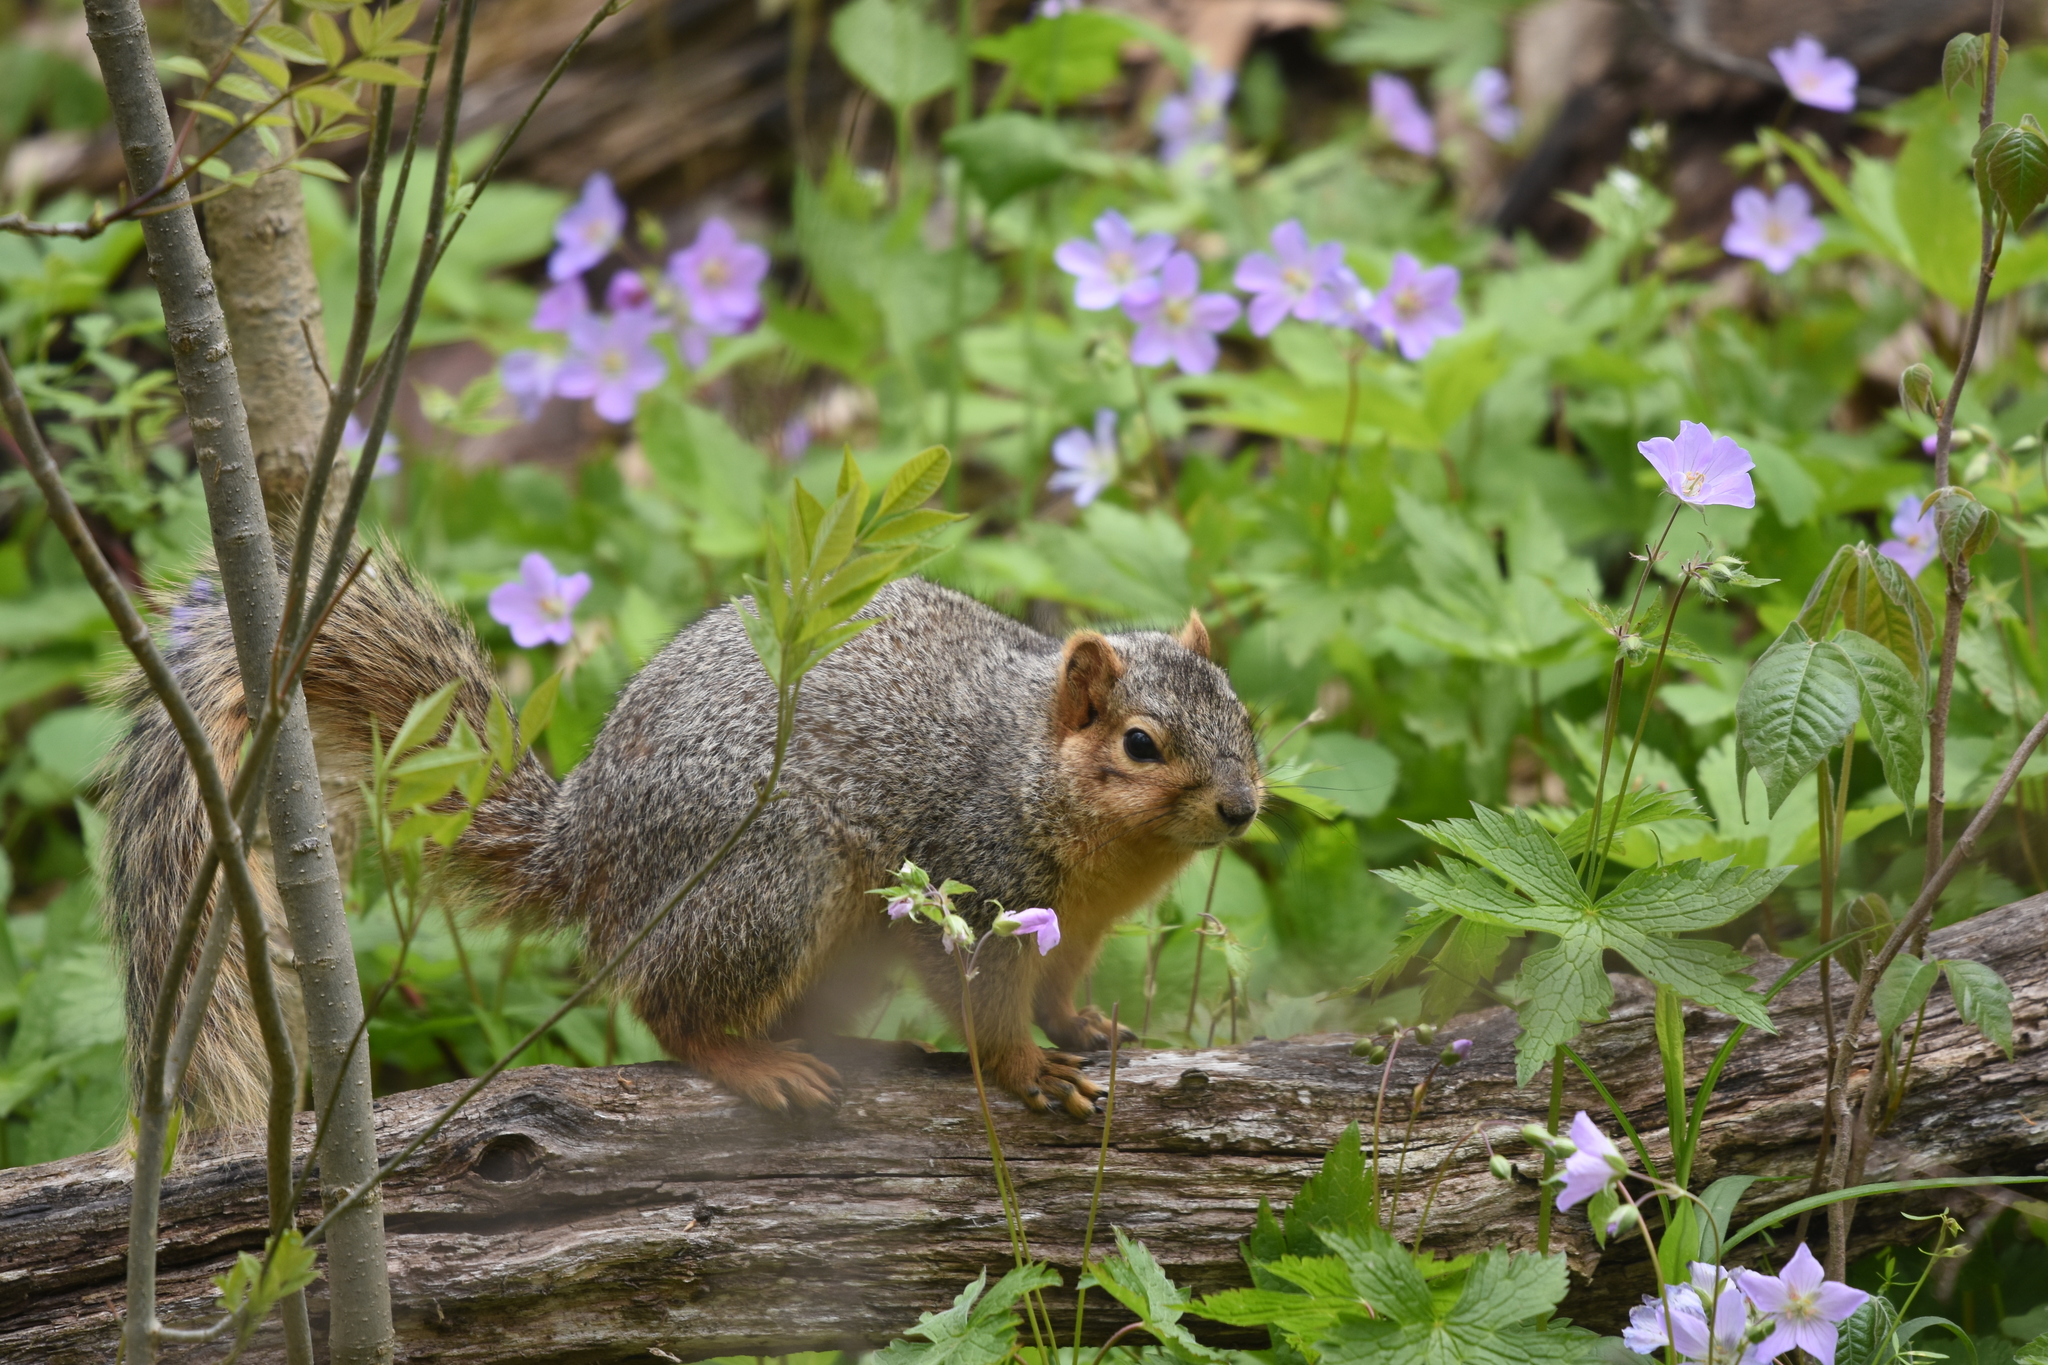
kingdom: Animalia
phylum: Chordata
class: Mammalia
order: Rodentia
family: Sciuridae
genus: Sciurus
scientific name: Sciurus niger
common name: Fox squirrel
